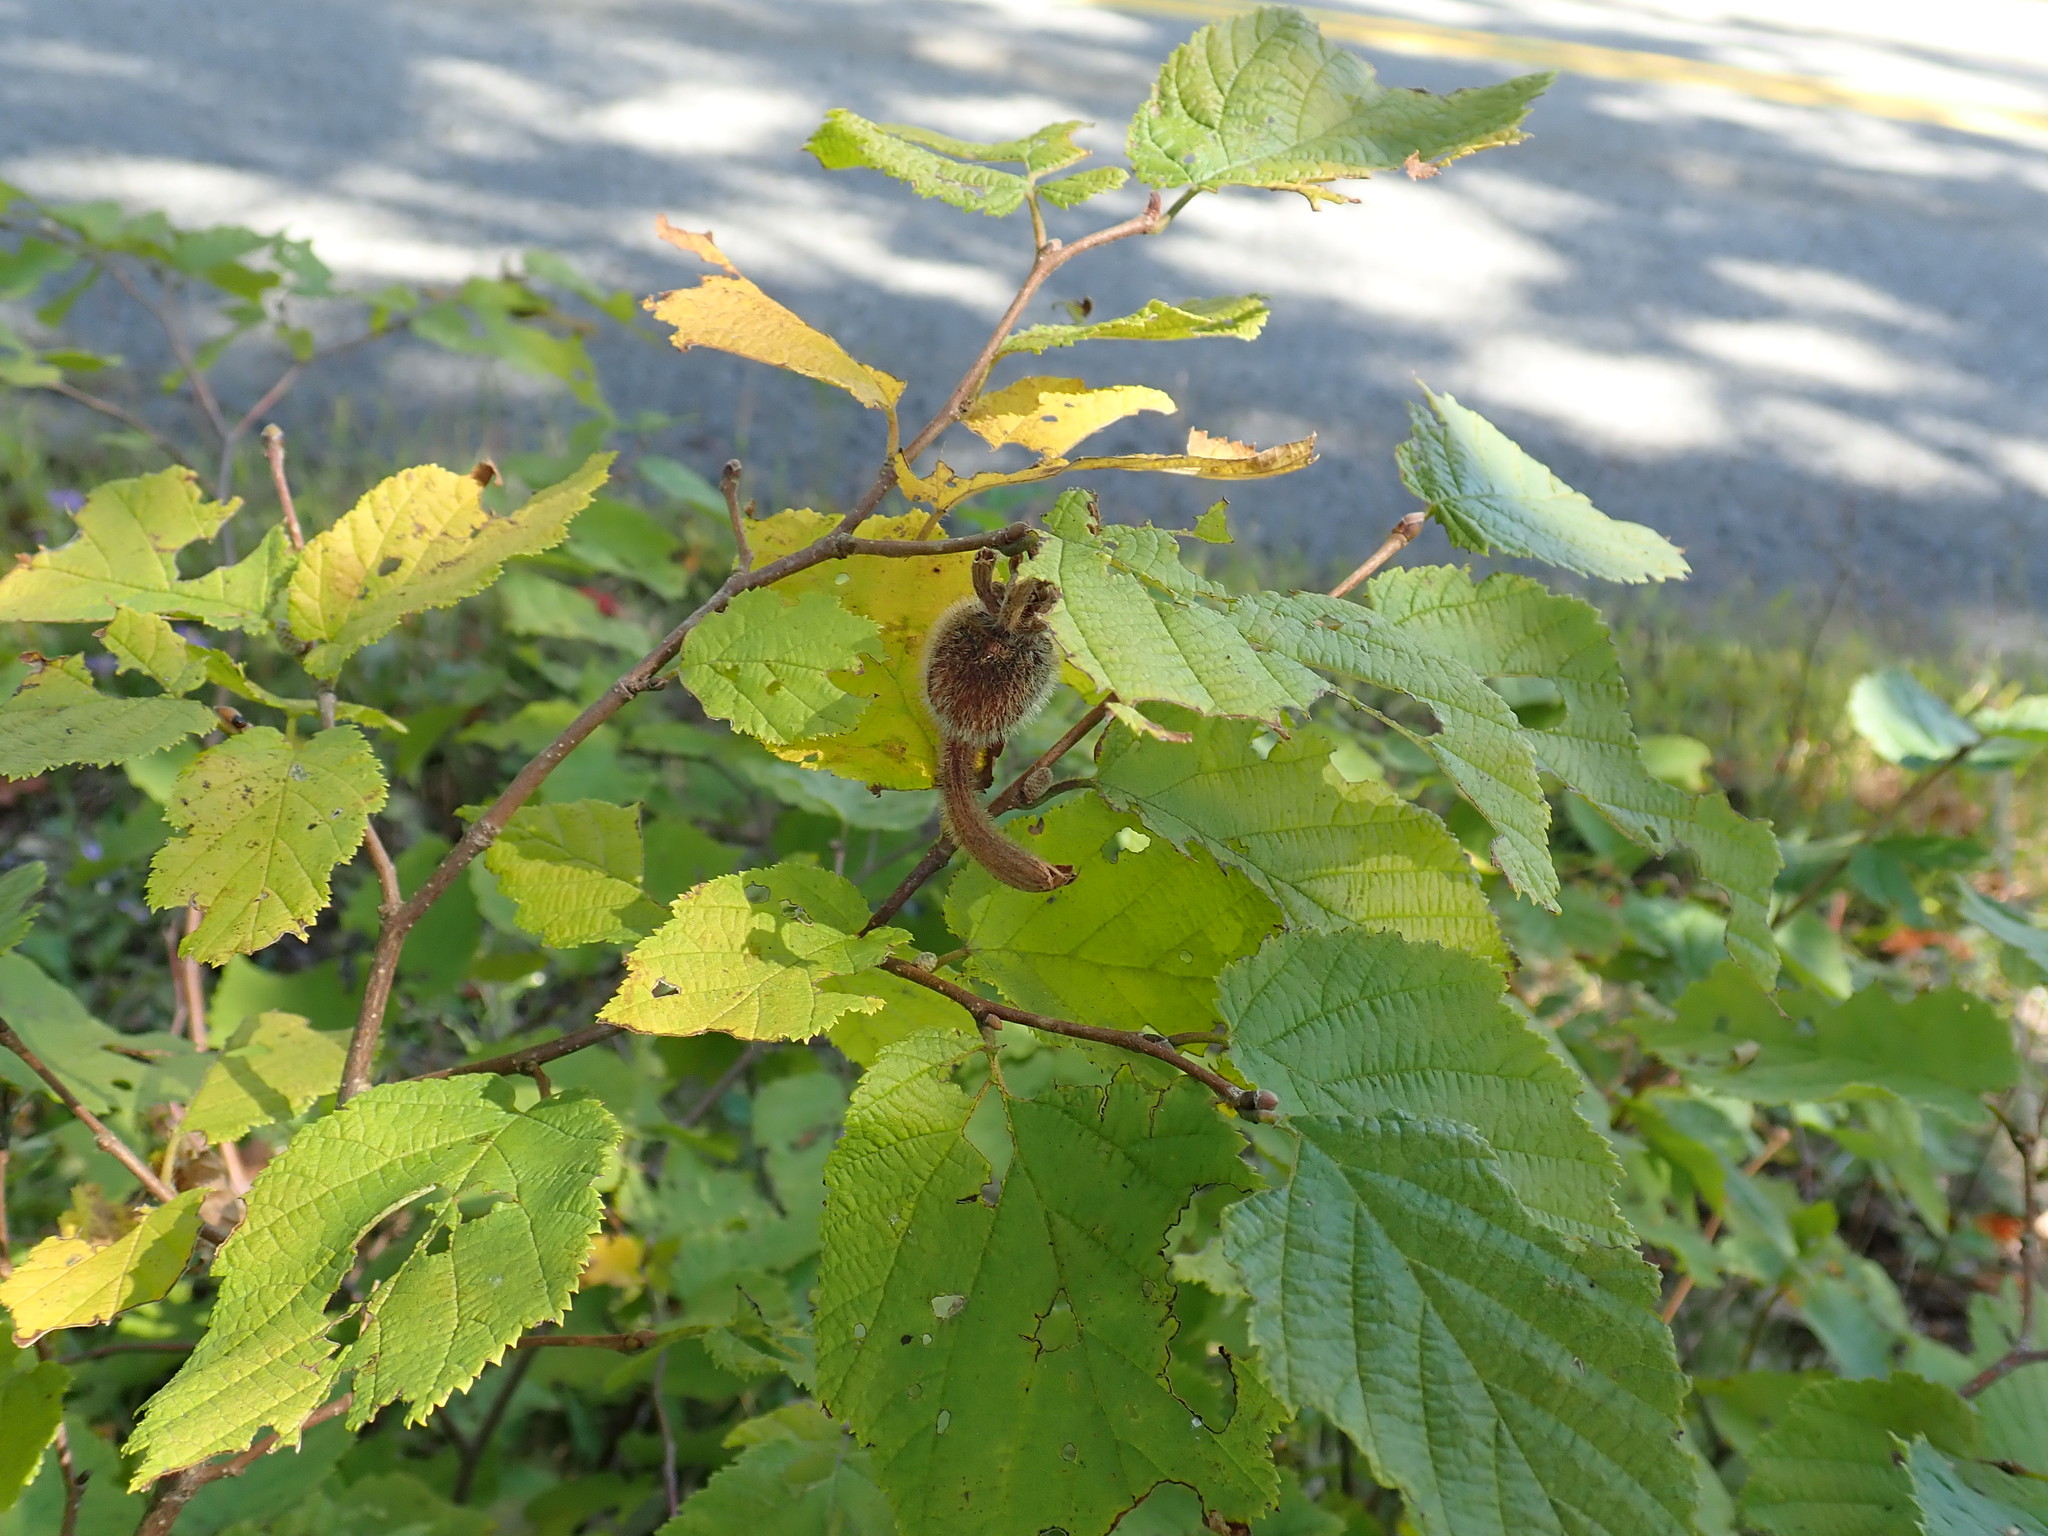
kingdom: Plantae
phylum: Tracheophyta
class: Magnoliopsida
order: Fagales
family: Betulaceae
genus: Corylus
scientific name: Corylus cornuta
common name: Beaked hazel
